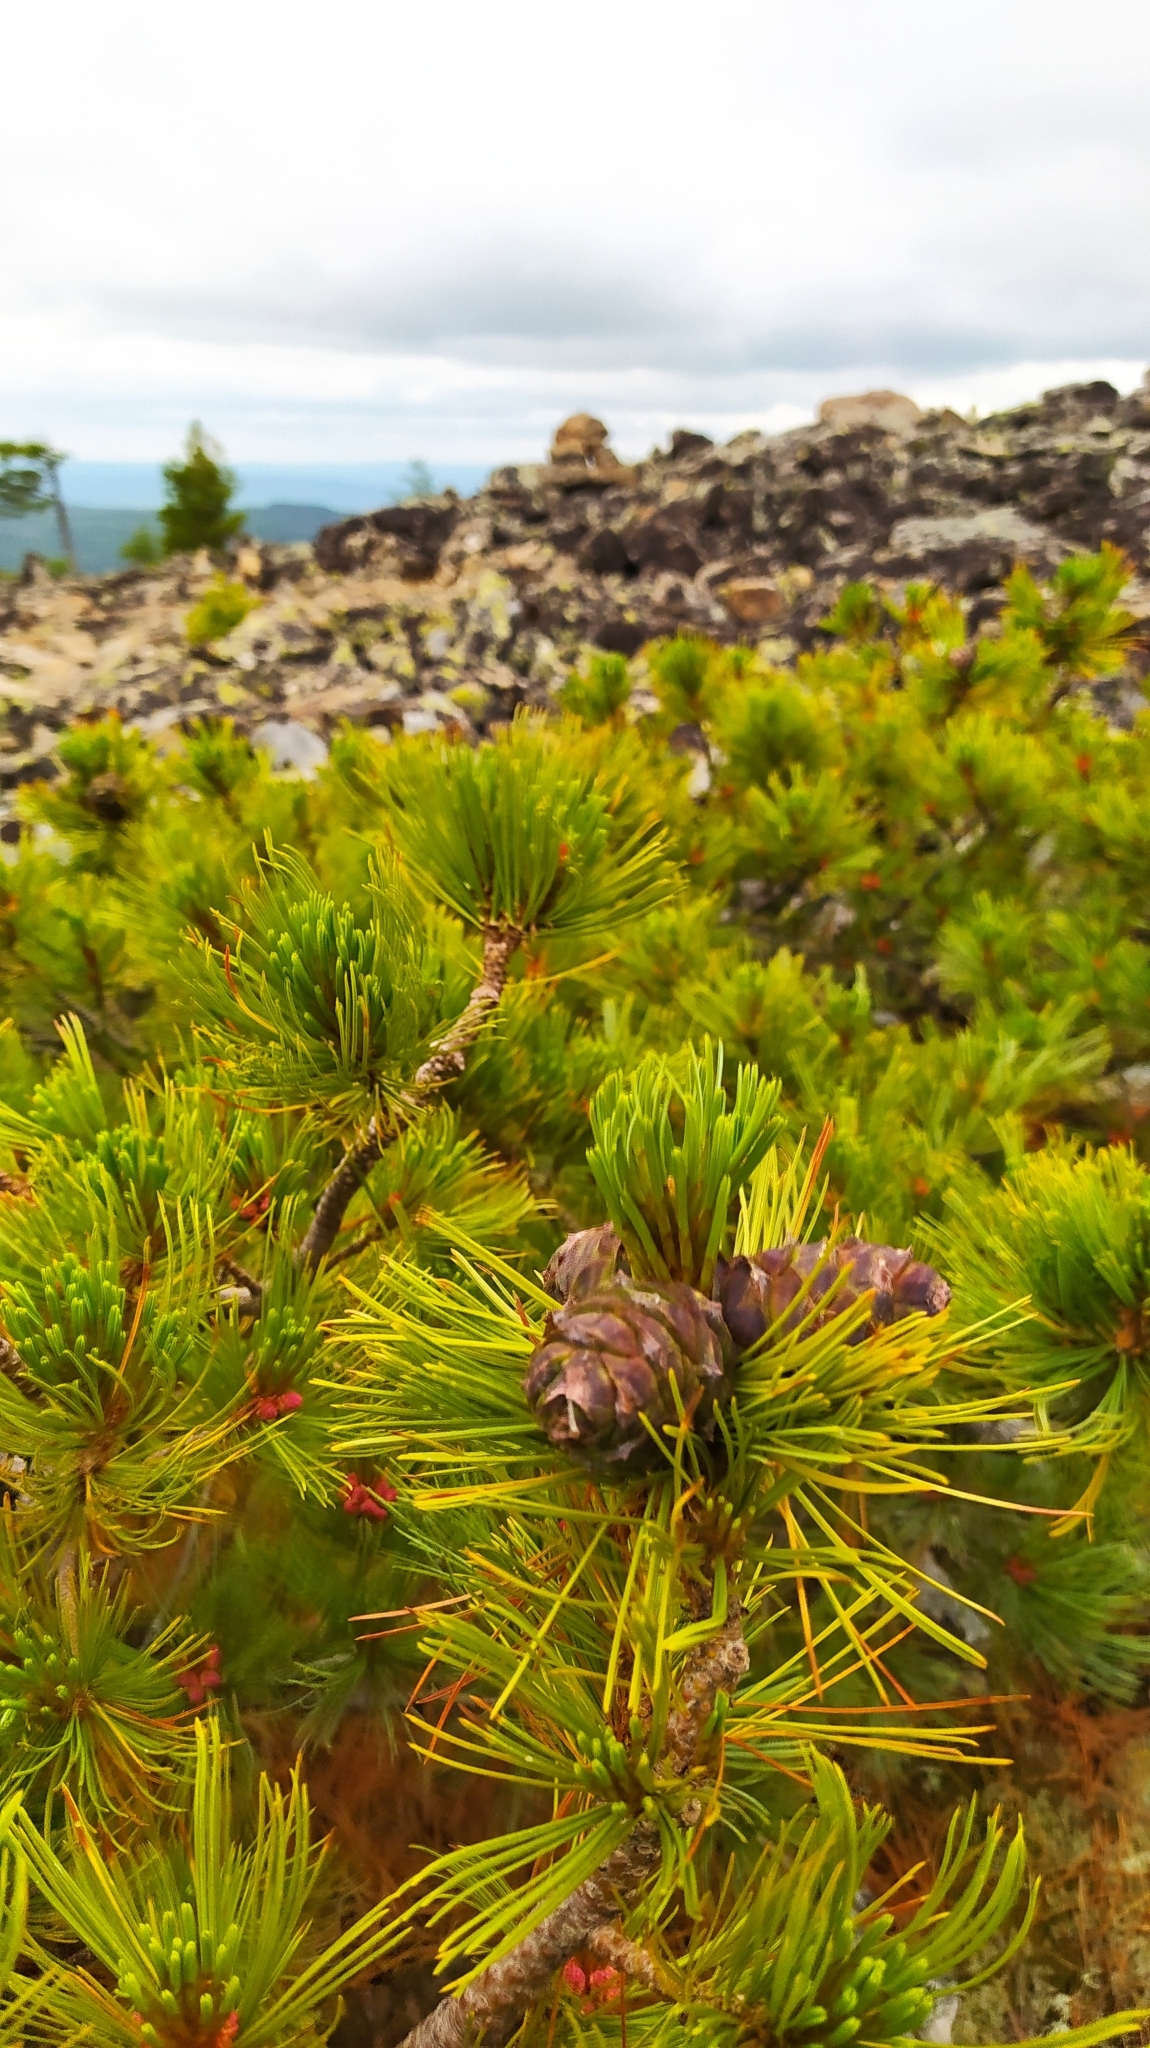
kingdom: Plantae
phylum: Tracheophyta
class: Pinopsida
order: Pinales
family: Pinaceae
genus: Pinus
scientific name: Pinus pumila
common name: Dwarf siberian pine
